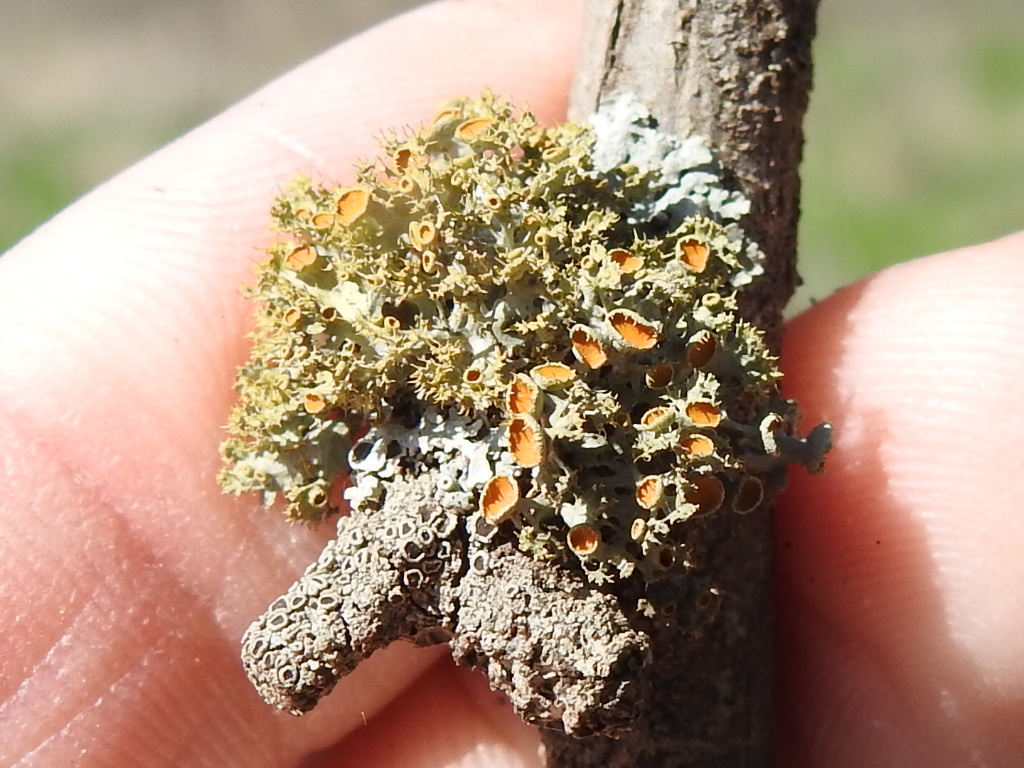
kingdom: Fungi
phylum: Ascomycota
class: Lecanoromycetes
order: Teloschistales
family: Teloschistaceae
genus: Niorma
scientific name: Niorma chrysophthalma
